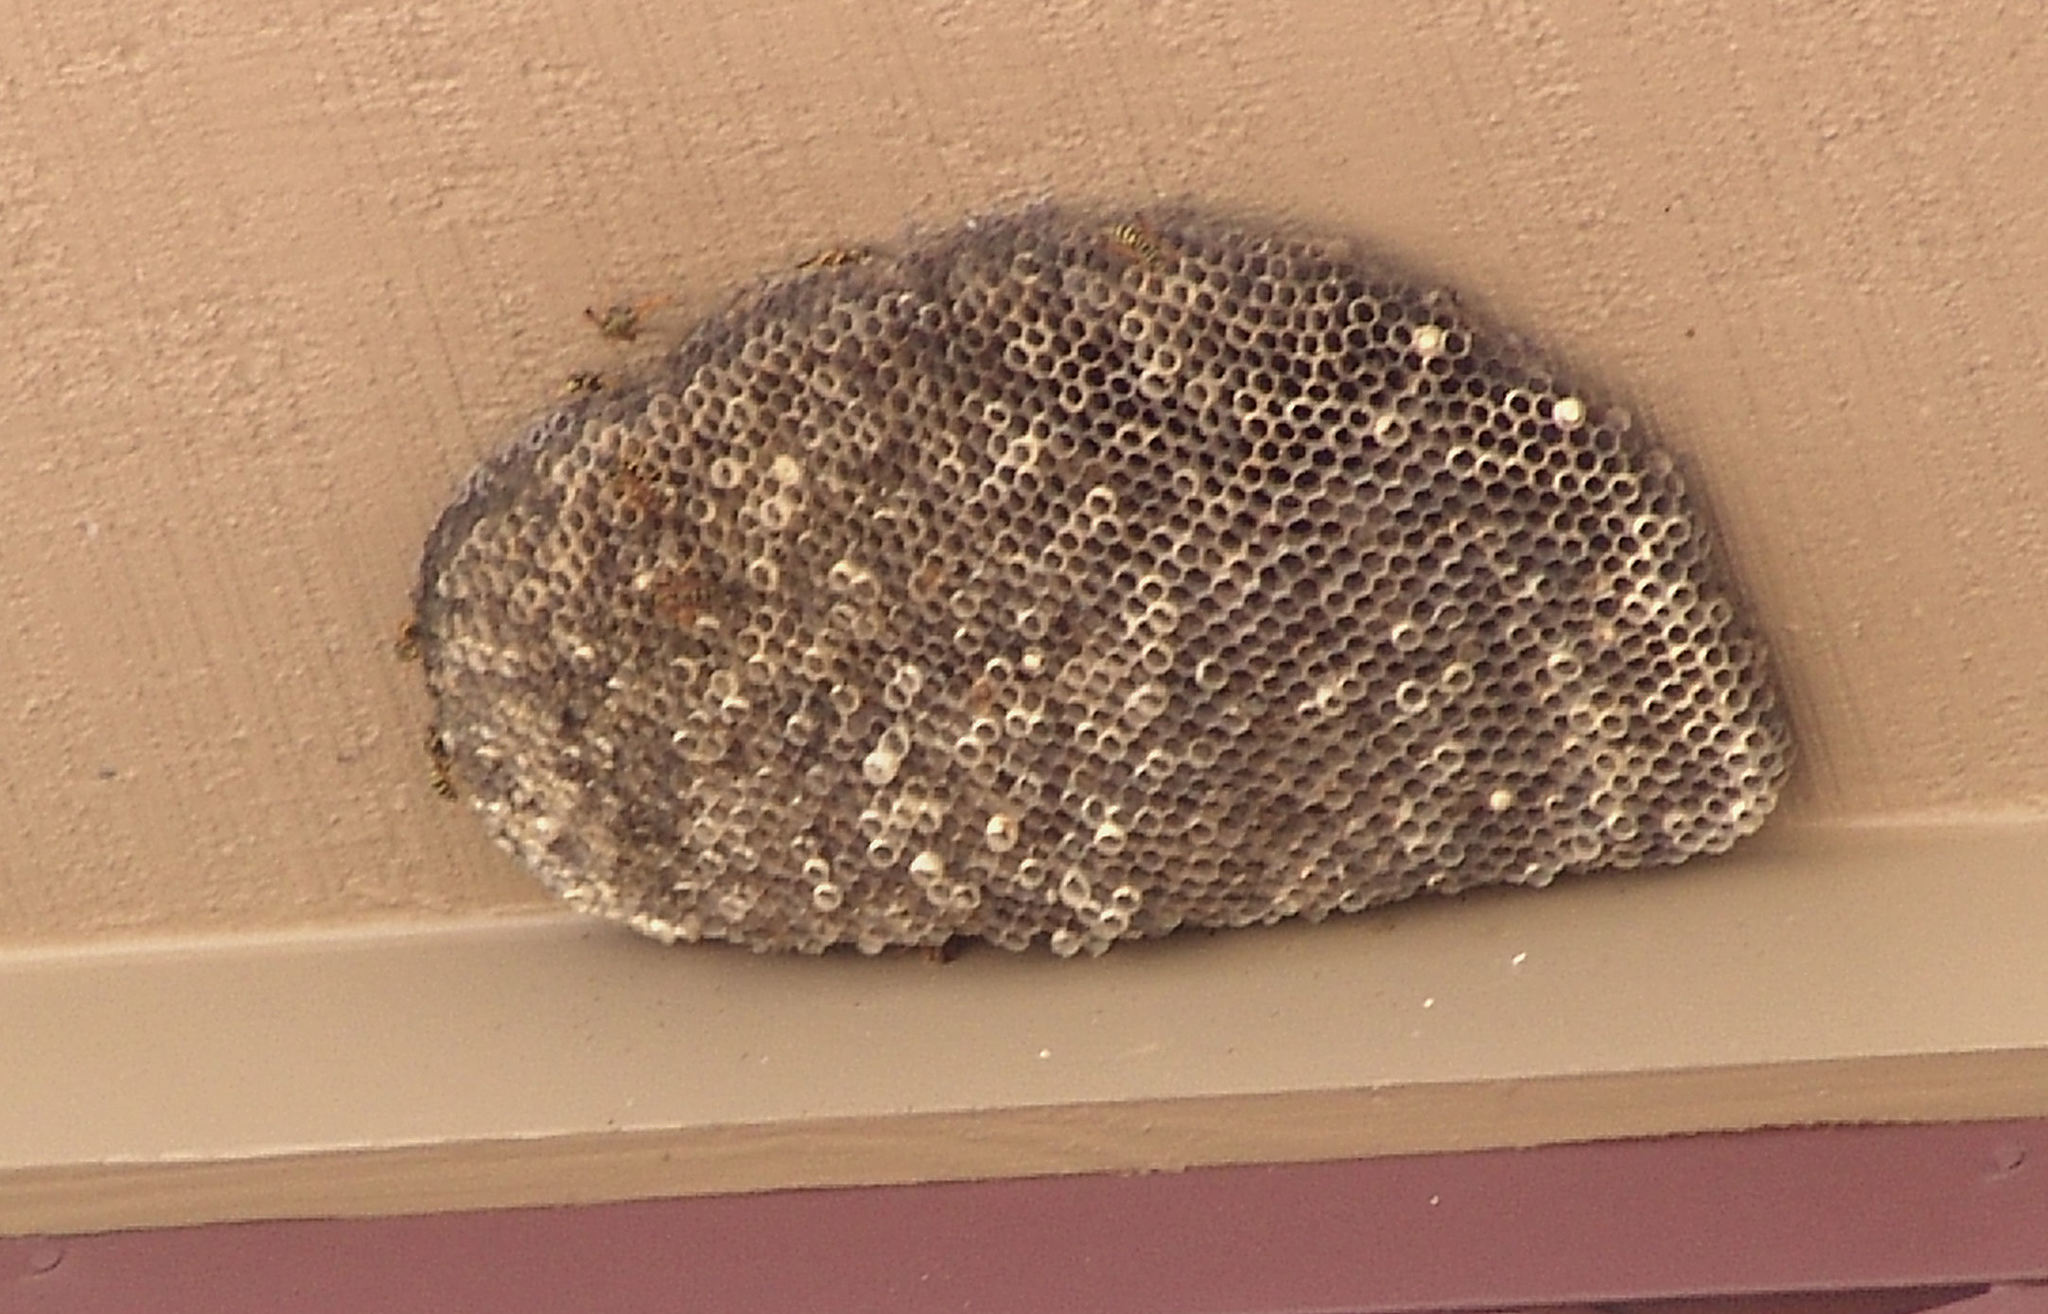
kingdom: Animalia
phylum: Arthropoda
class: Insecta
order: Hymenoptera
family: Eumenidae
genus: Polistes
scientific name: Polistes dominula
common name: Paper wasp
